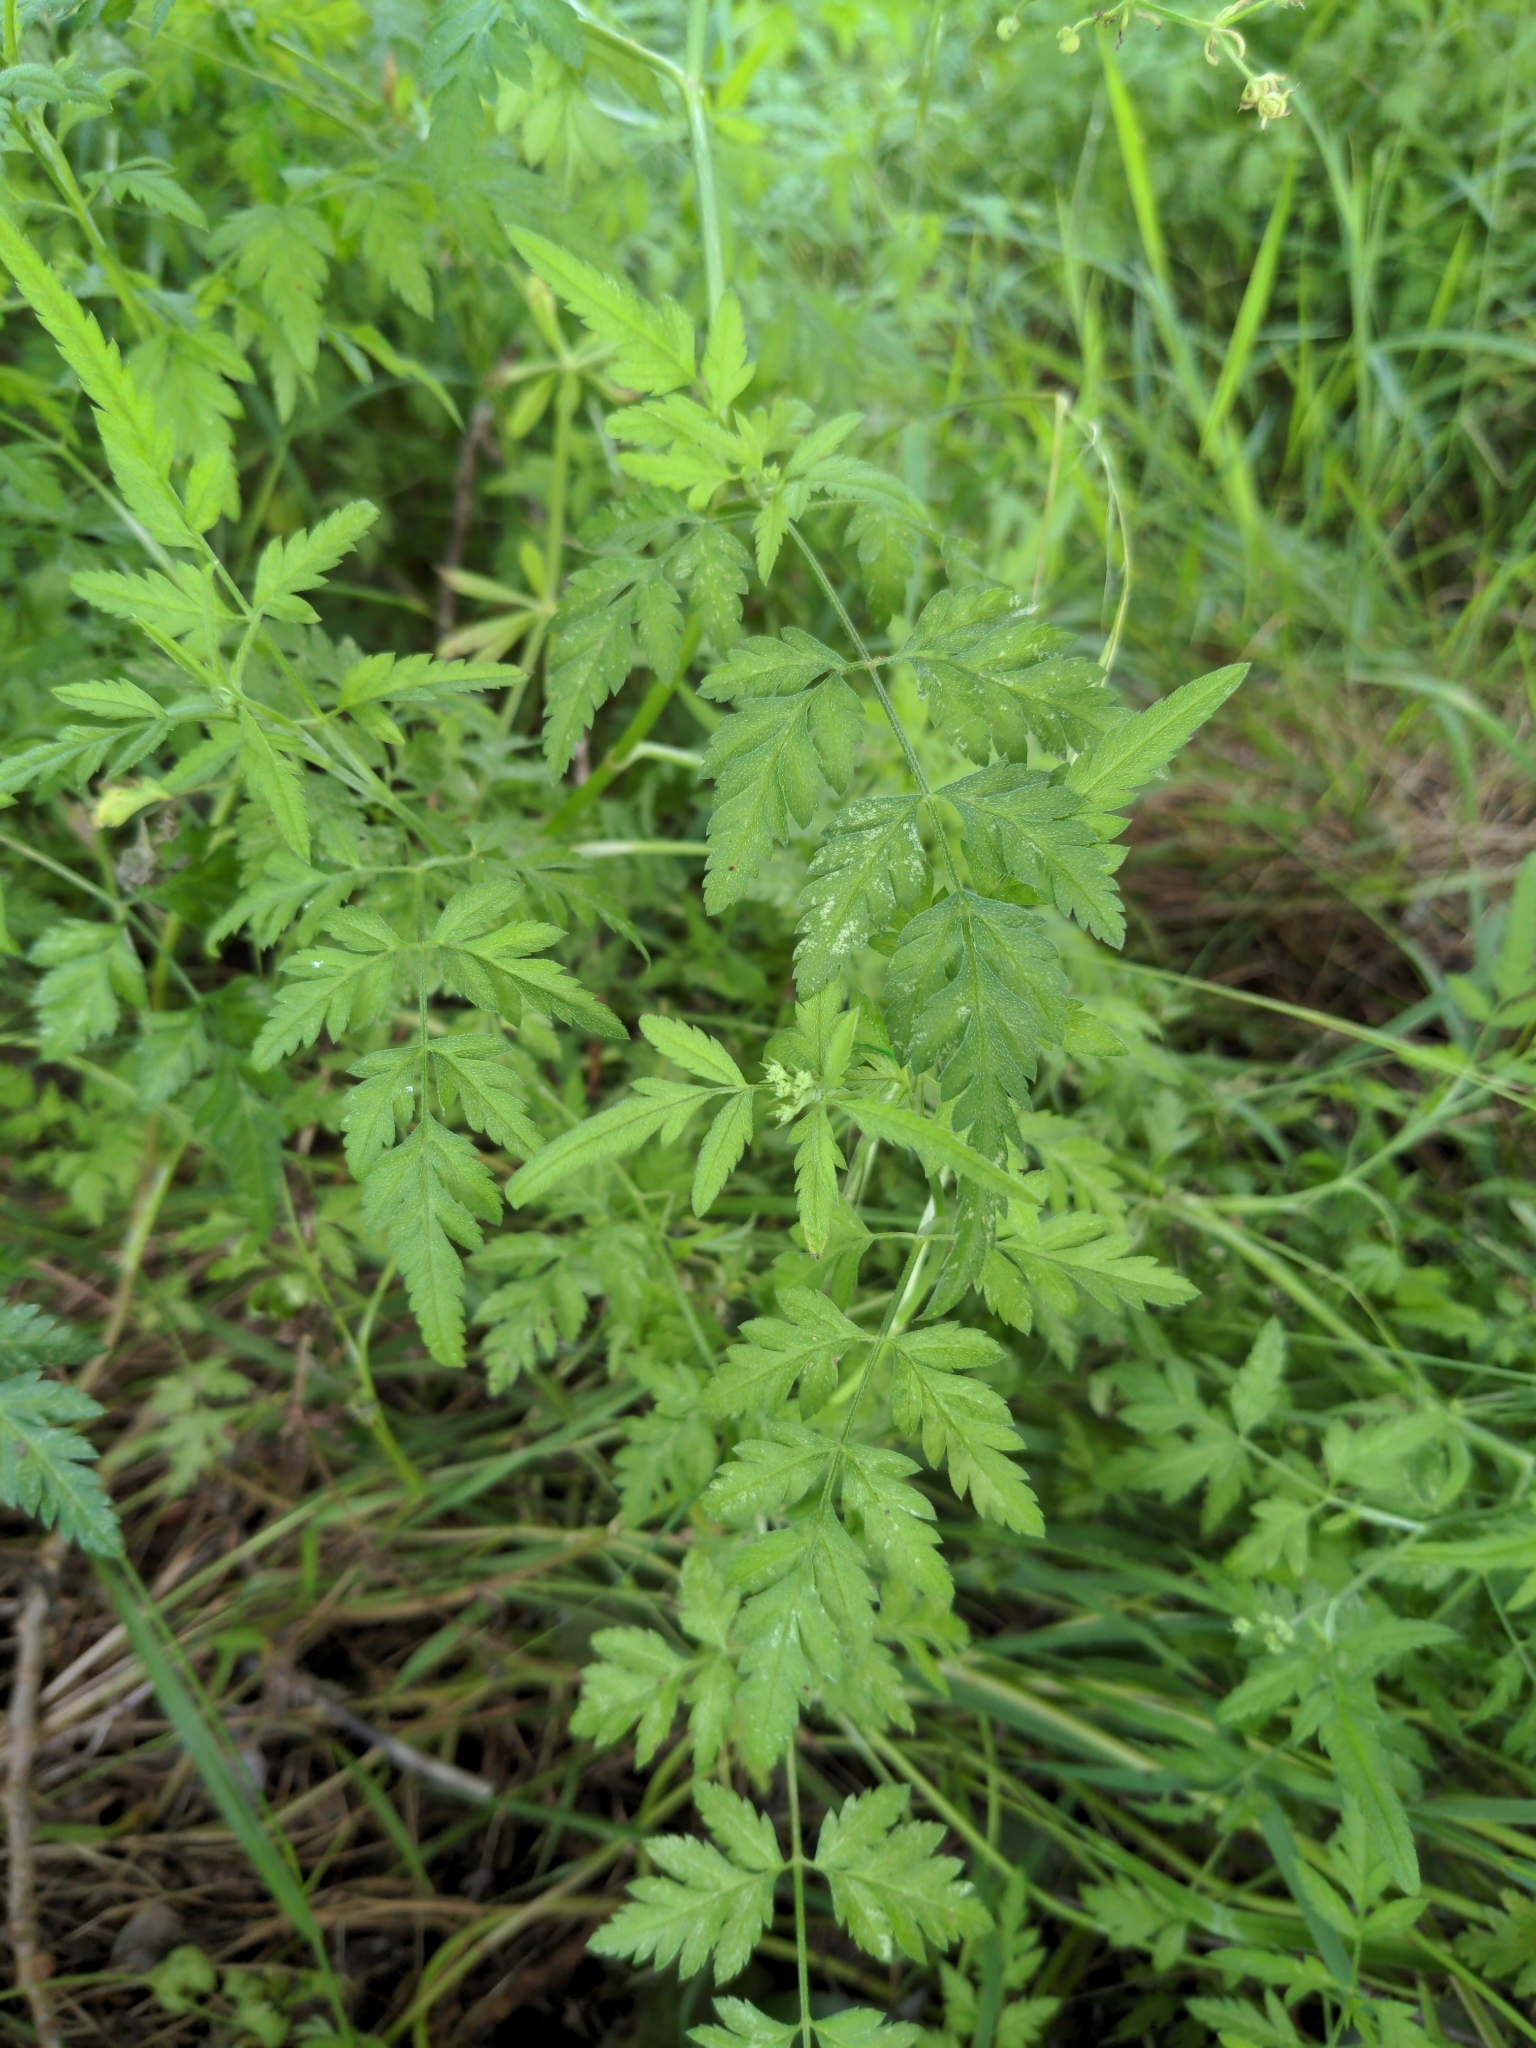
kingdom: Plantae
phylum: Tracheophyta
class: Magnoliopsida
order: Apiales
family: Apiaceae
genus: Torilis
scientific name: Torilis arvensis
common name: Spreading hedge-parsley
